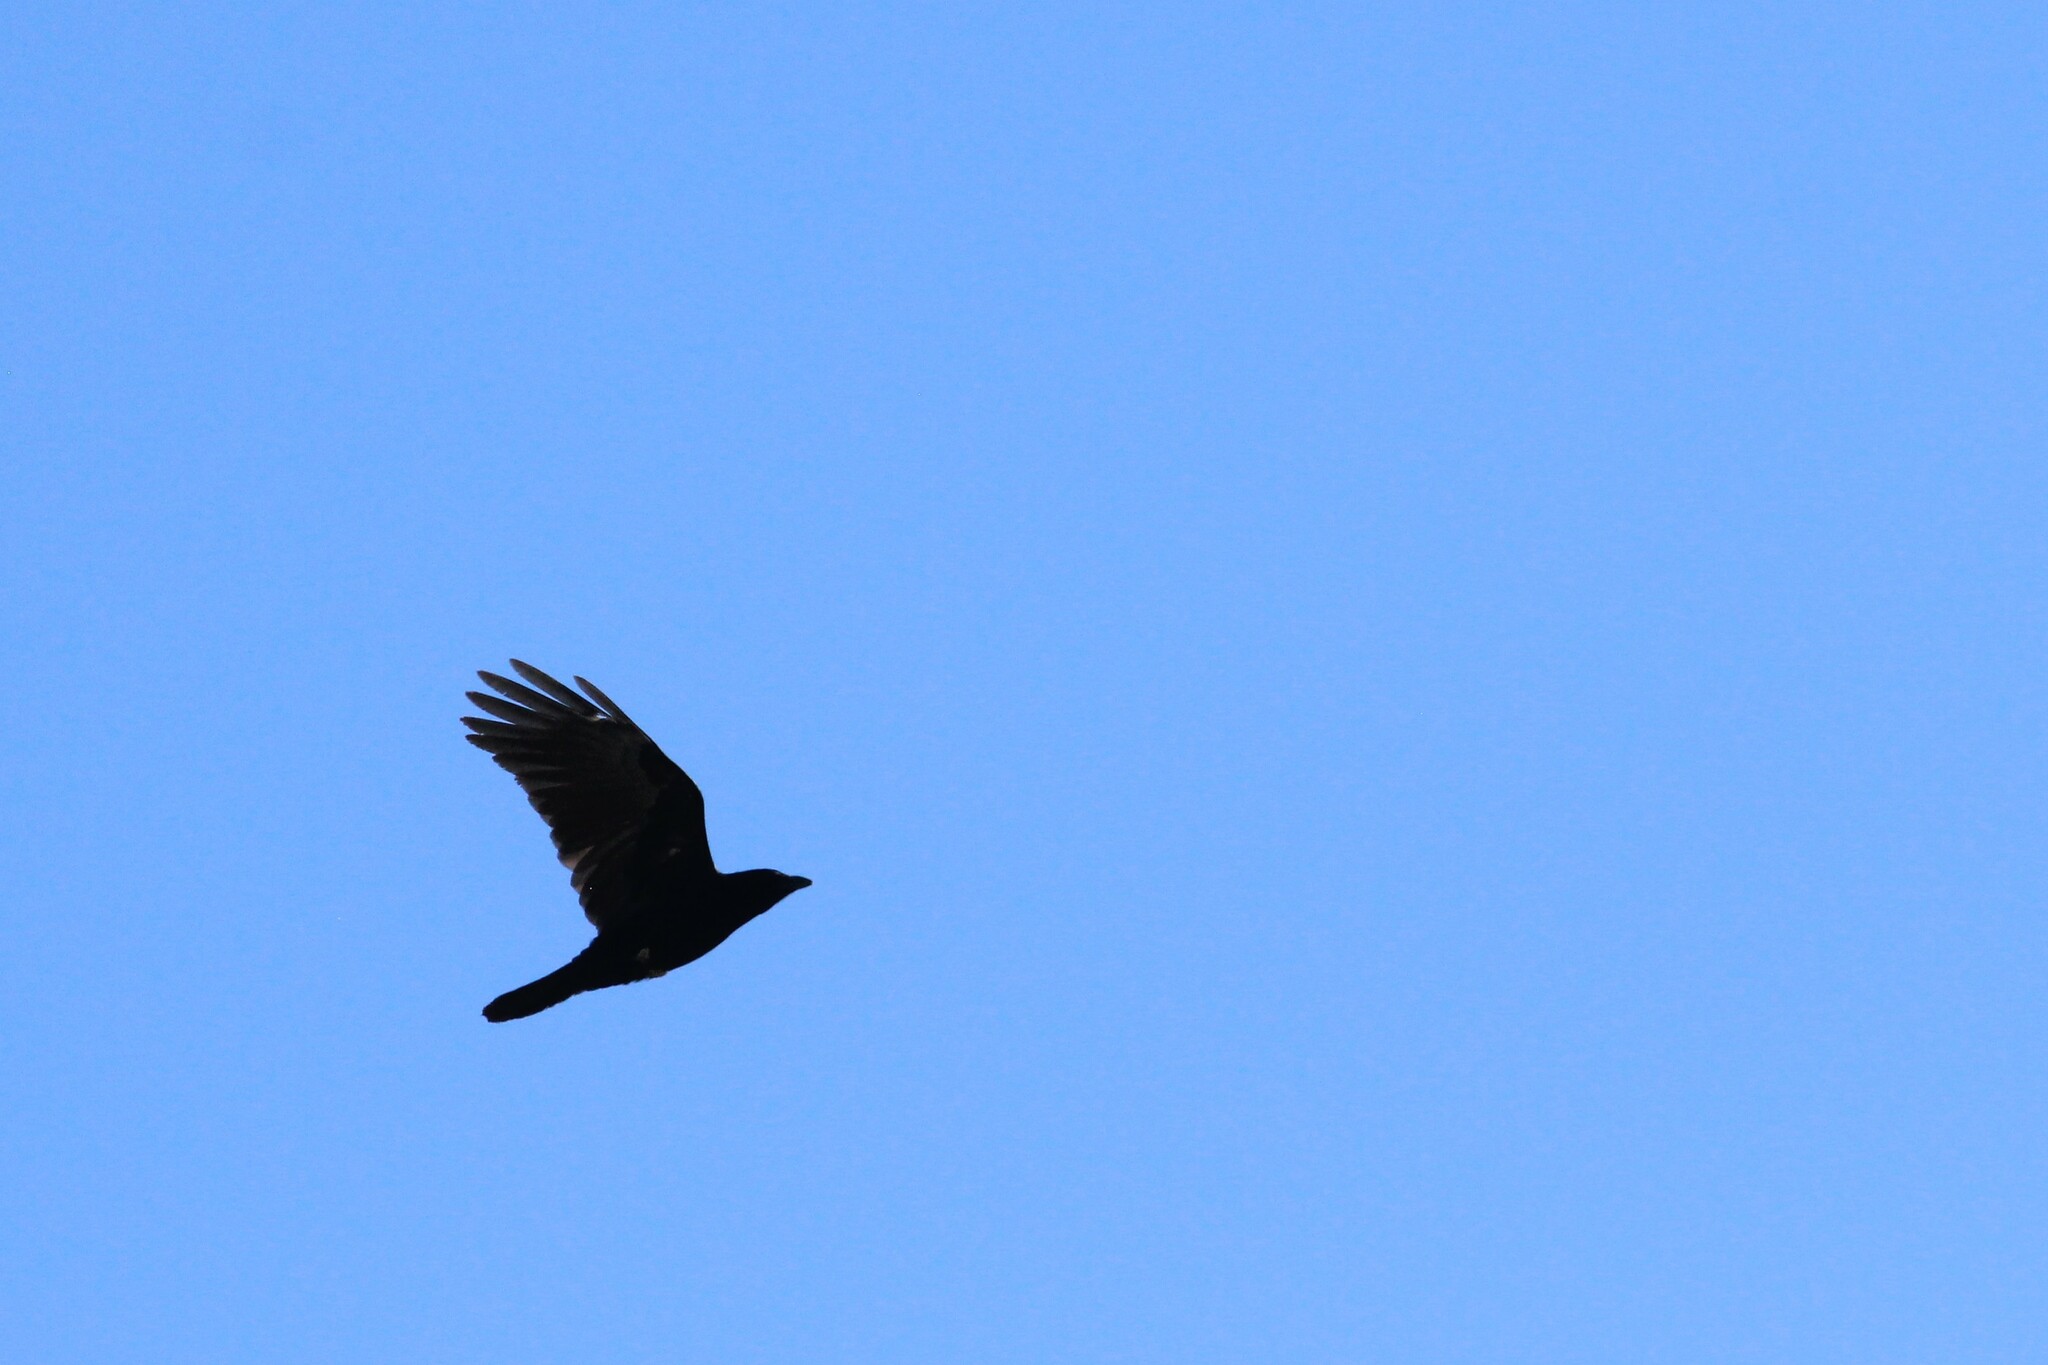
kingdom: Animalia
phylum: Chordata
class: Aves
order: Passeriformes
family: Corvidae
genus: Corvus
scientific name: Corvus brachyrhynchos
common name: American crow
